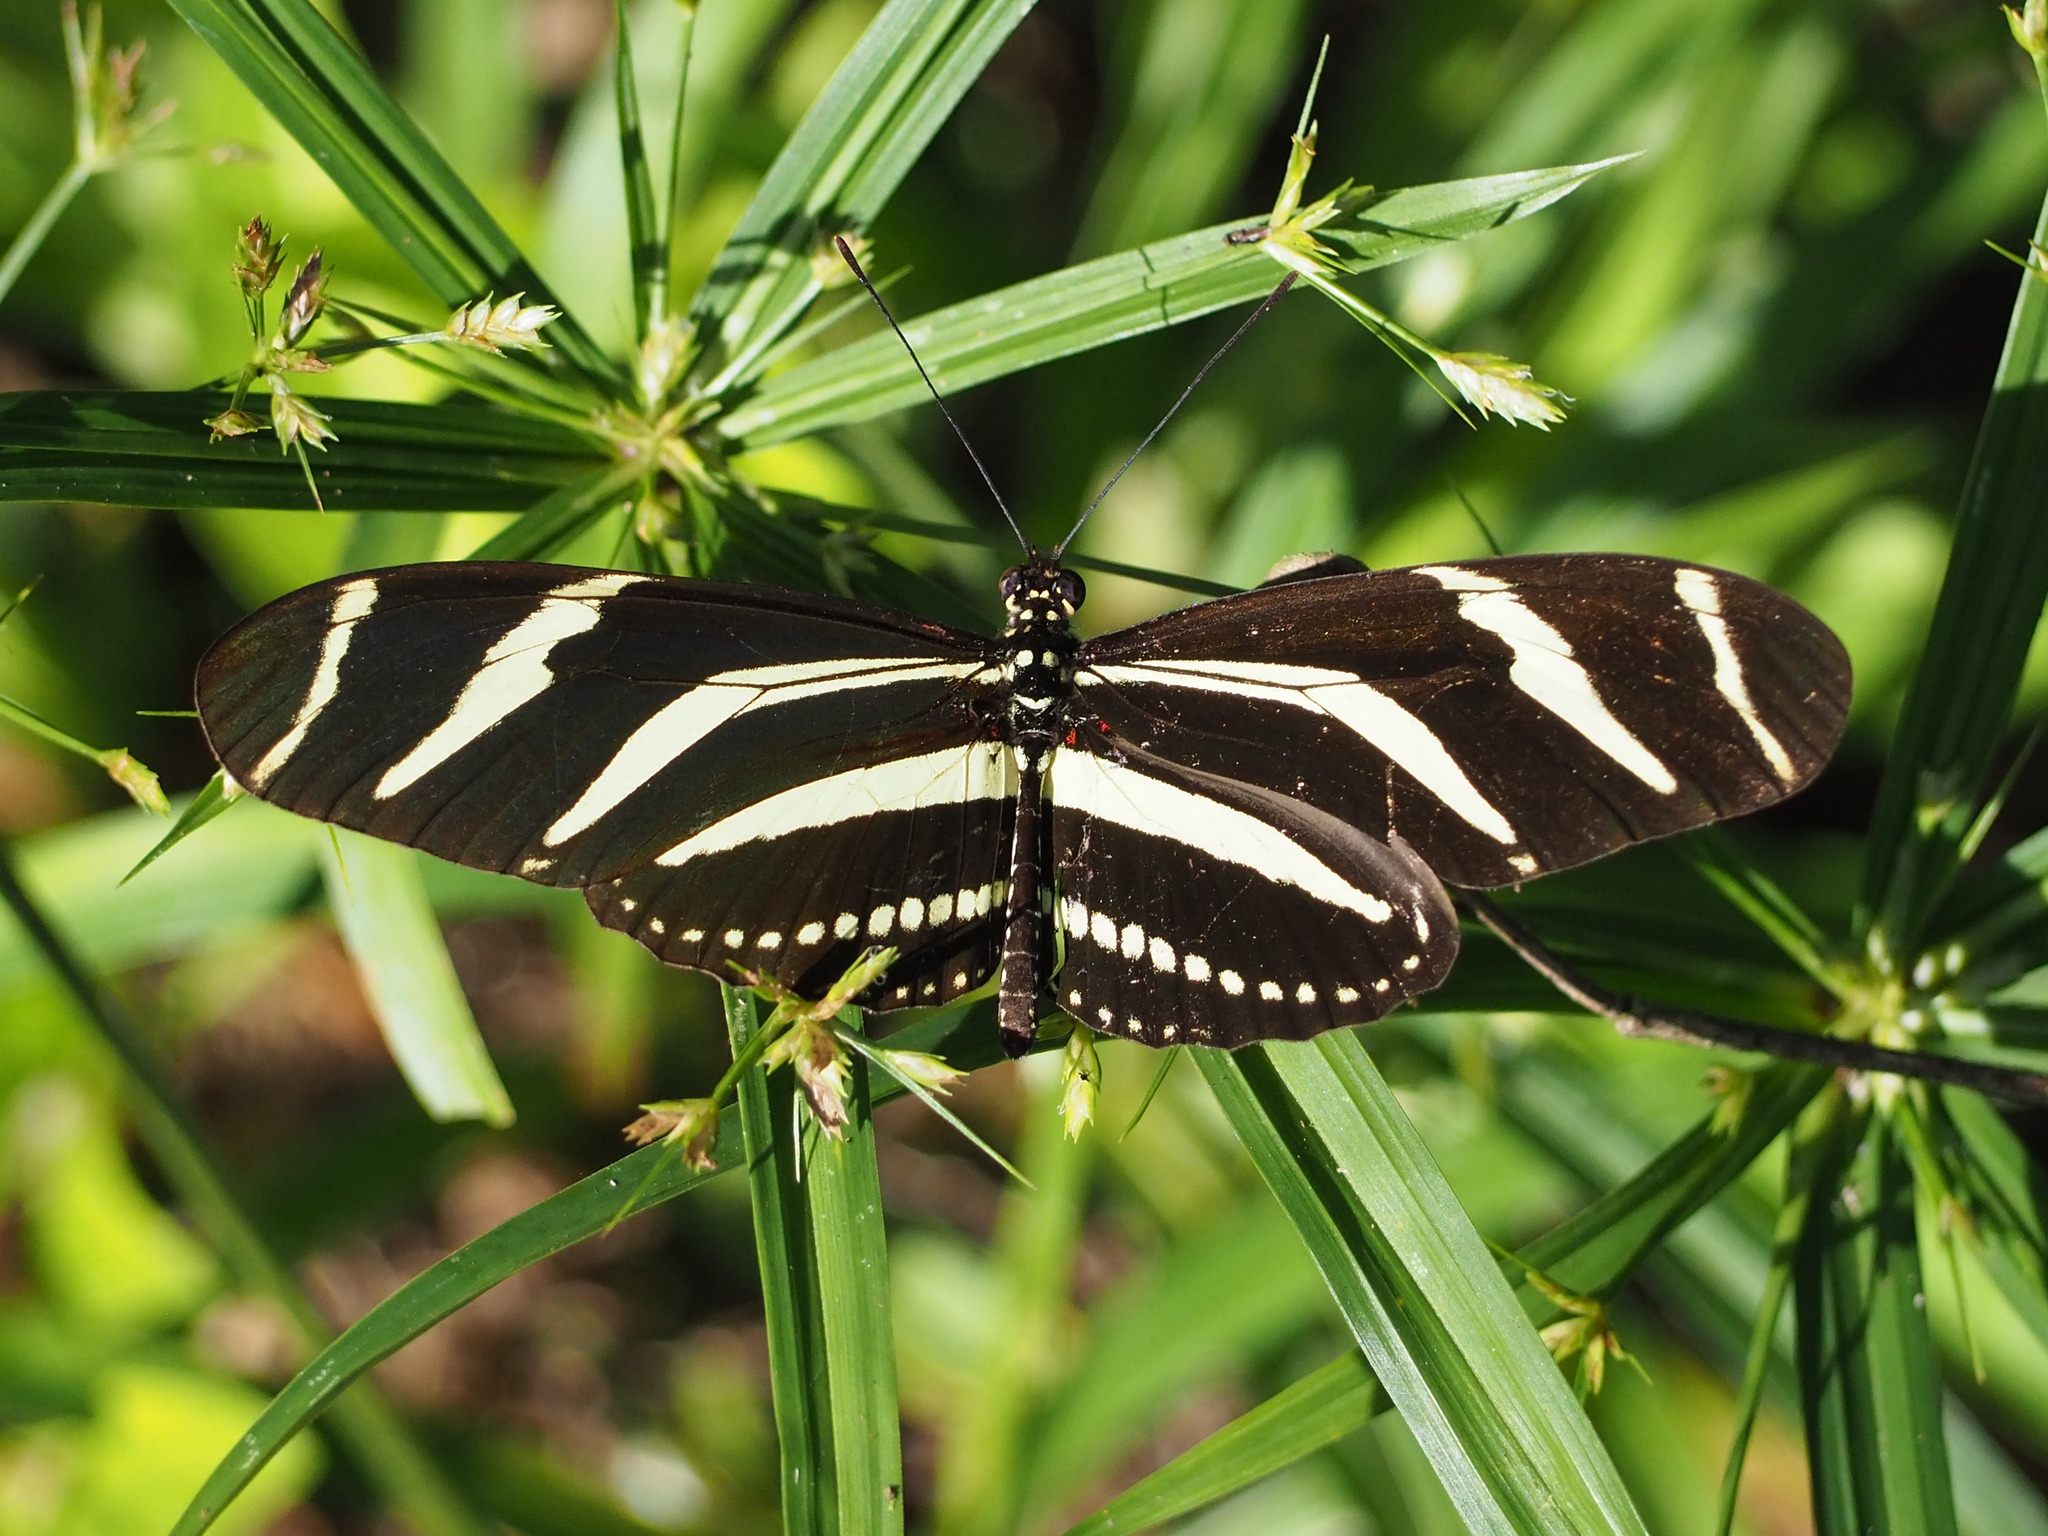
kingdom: Animalia
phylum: Arthropoda
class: Insecta
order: Lepidoptera
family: Nymphalidae
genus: Heliconius
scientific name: Heliconius charithonia
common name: Zebra long wing
